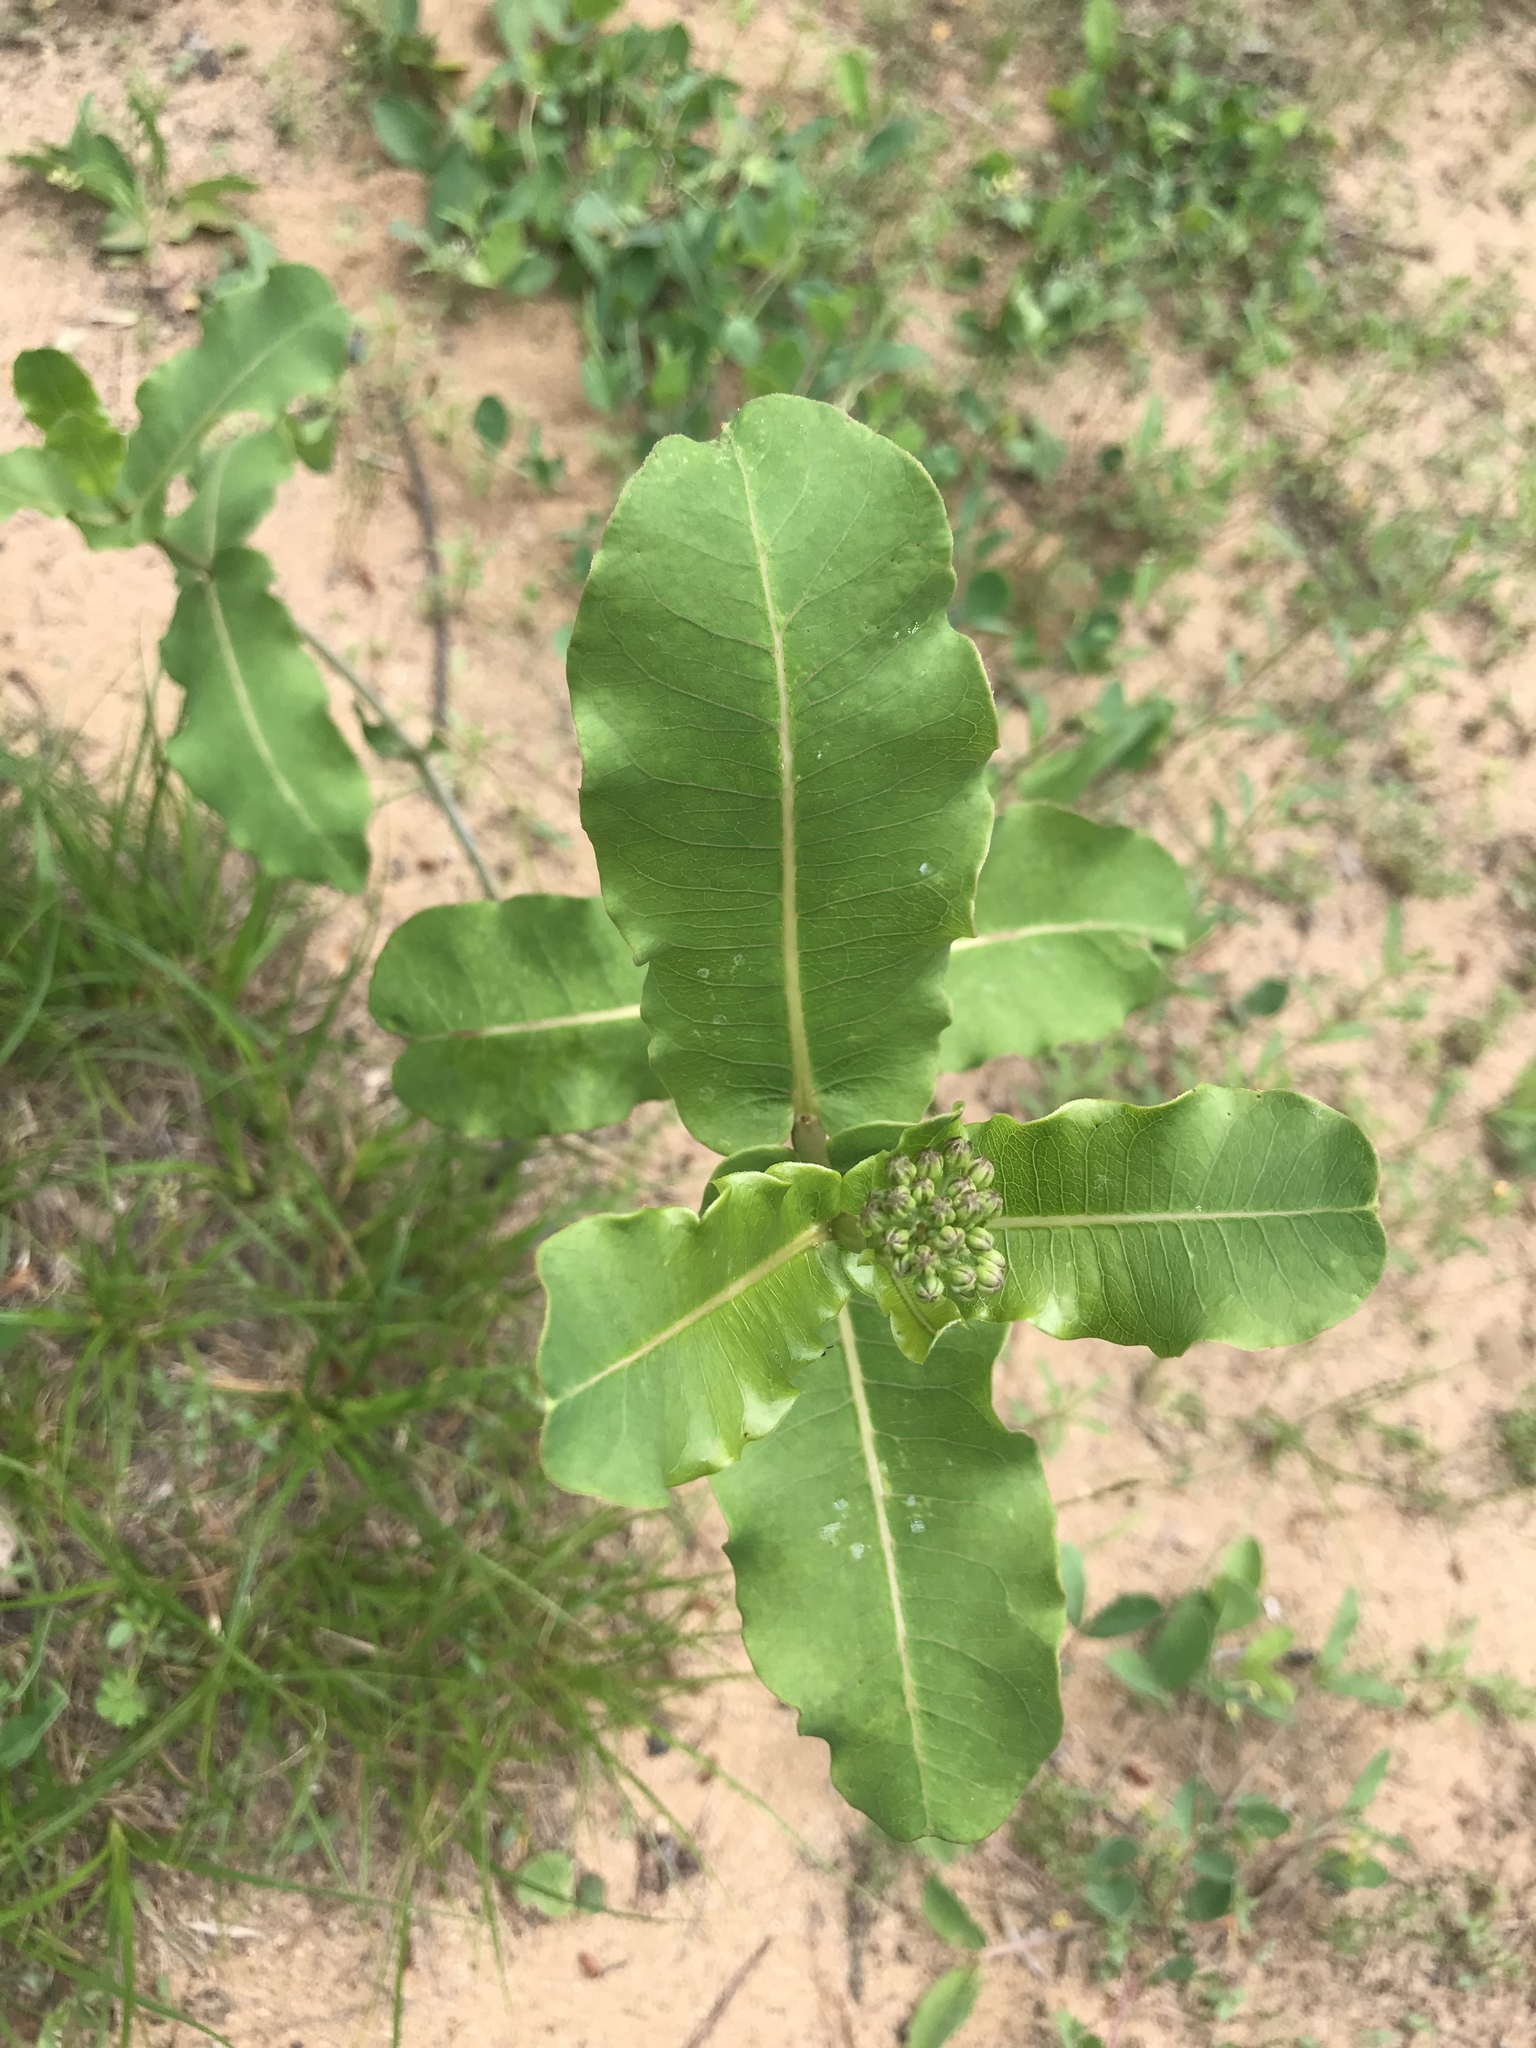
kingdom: Plantae
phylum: Tracheophyta
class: Magnoliopsida
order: Gentianales
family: Apocynaceae
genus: Asclepias
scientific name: Asclepias amplexicaulis
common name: Blunt-leaf milkweed
